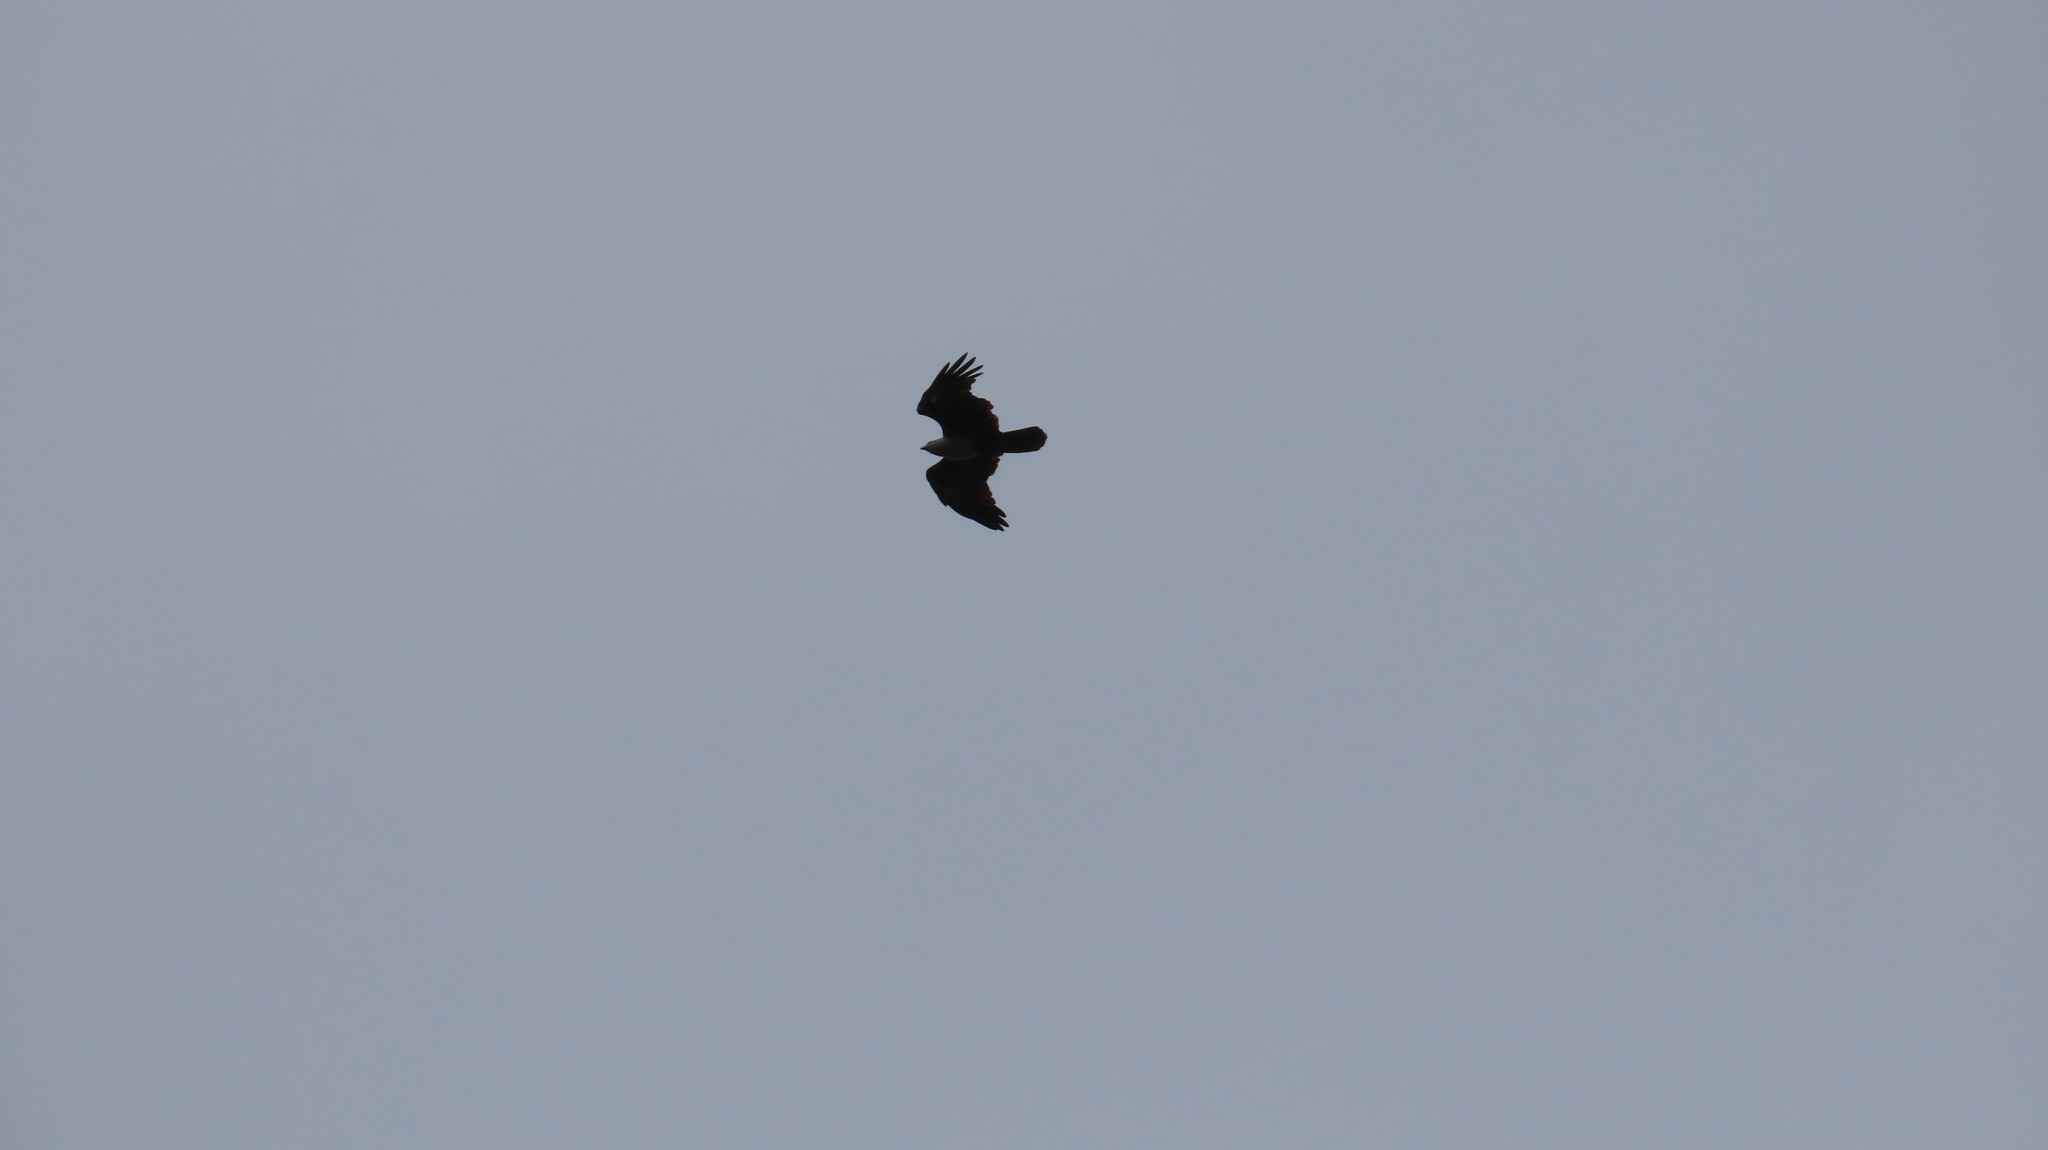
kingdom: Animalia
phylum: Chordata
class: Aves
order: Accipitriformes
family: Accipitridae
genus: Haliastur
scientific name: Haliastur indus
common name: Brahminy kite
